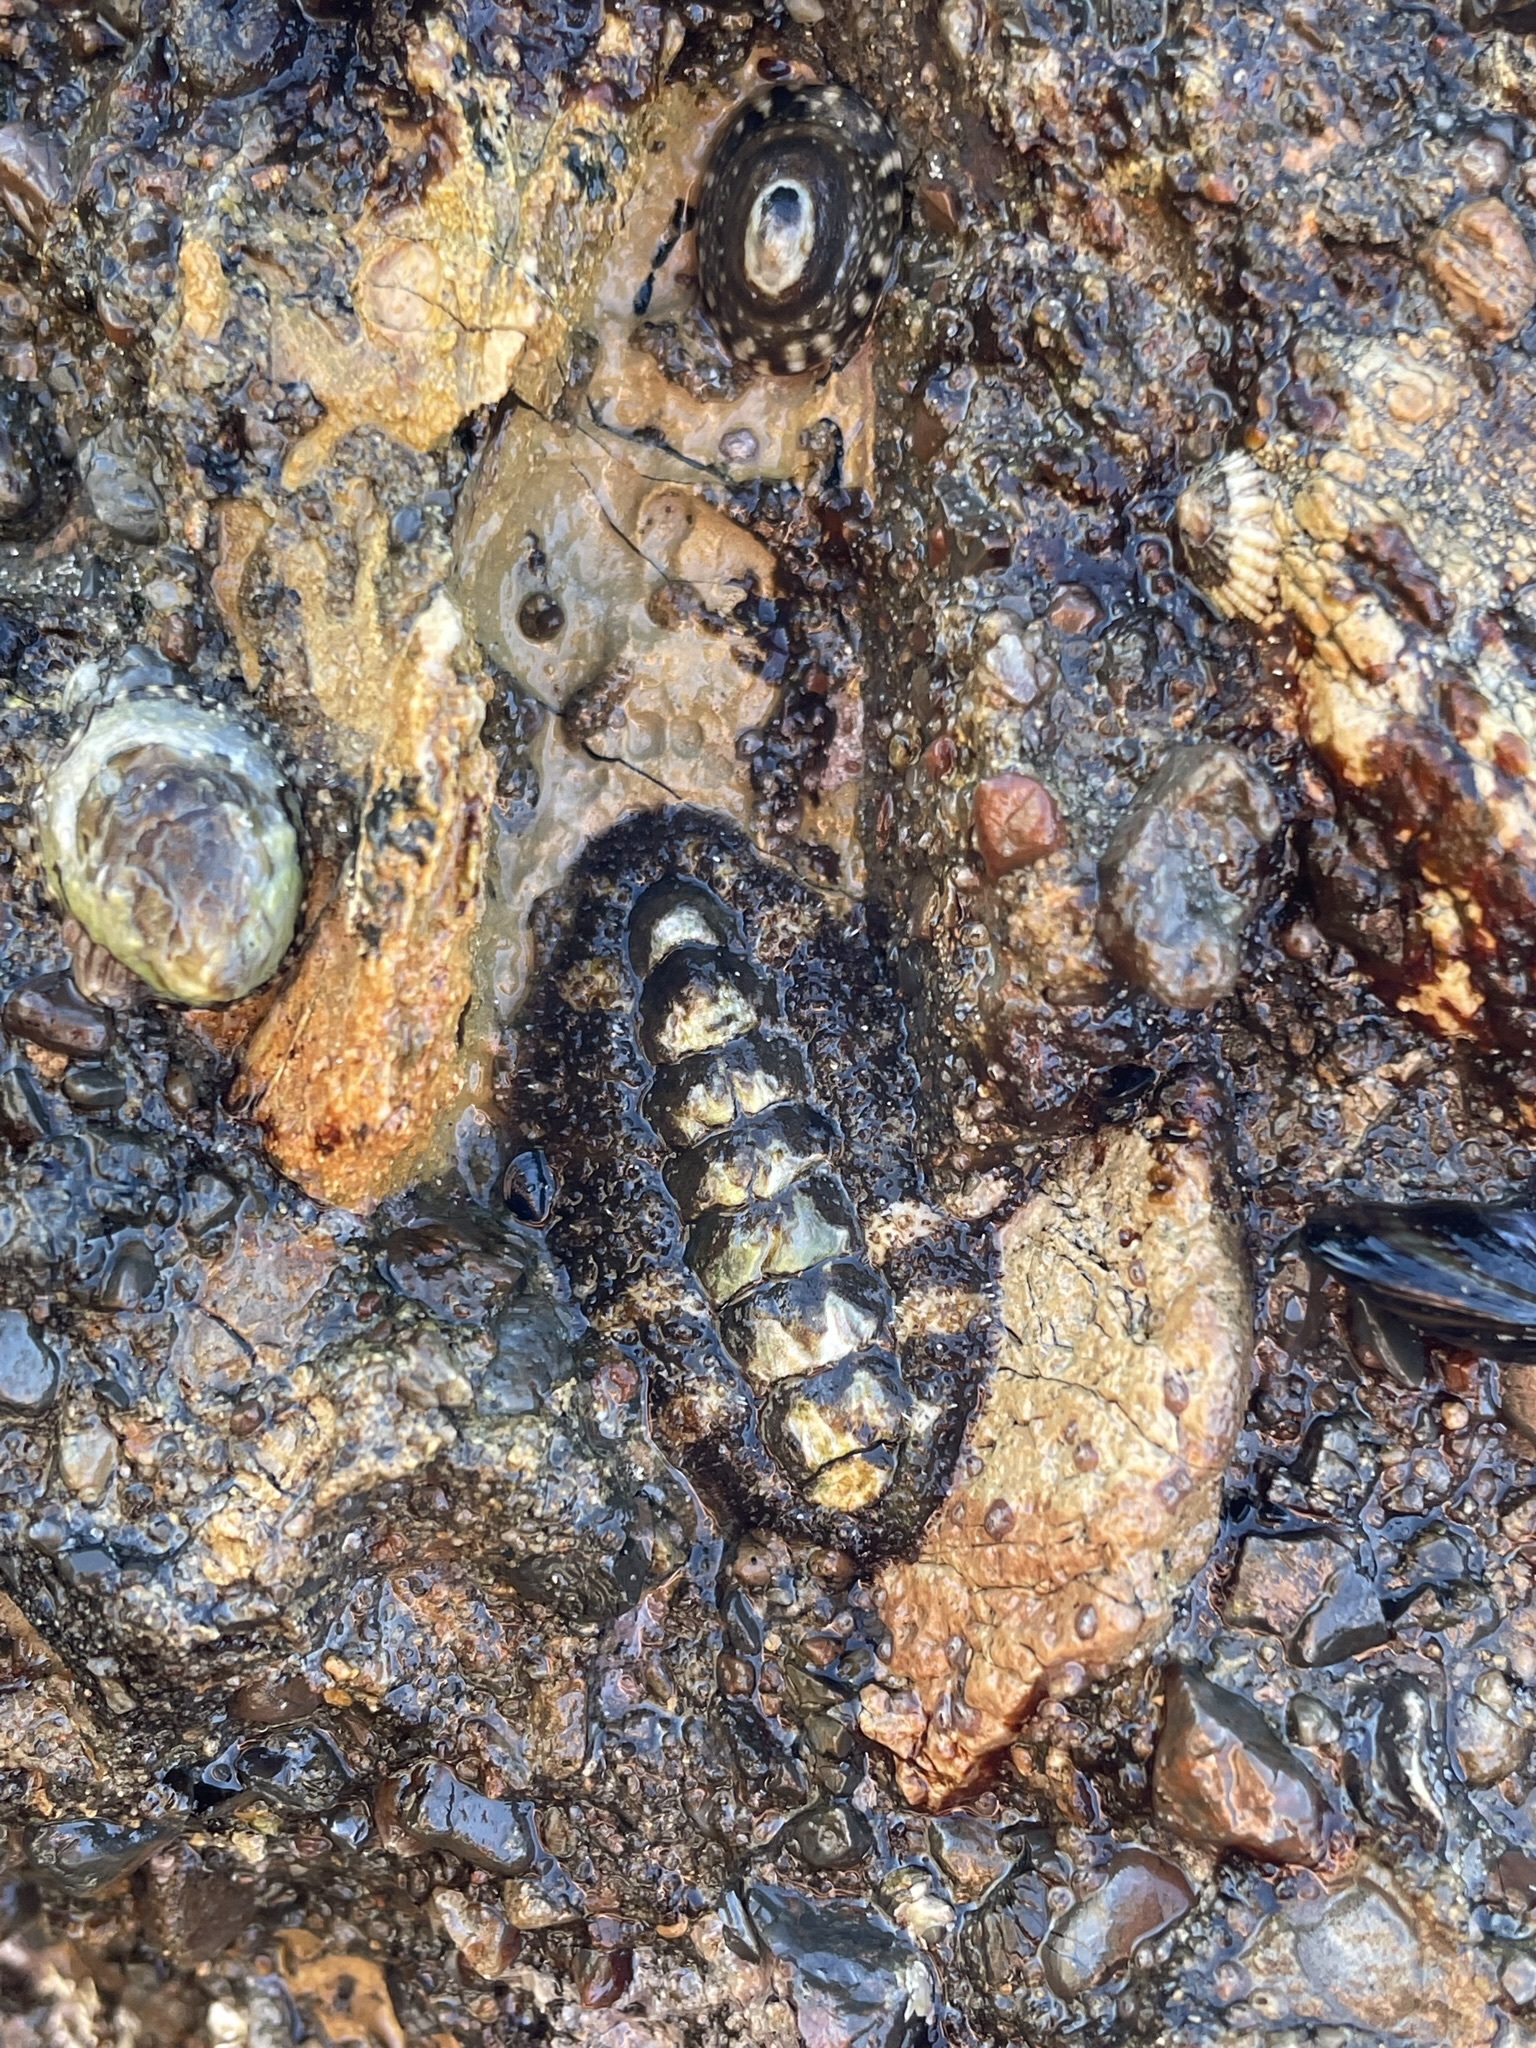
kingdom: Animalia
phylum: Mollusca
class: Polyplacophora
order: Chitonida
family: Tonicellidae
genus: Nuttallina
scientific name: Nuttallina californica
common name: California nuttall chiton
